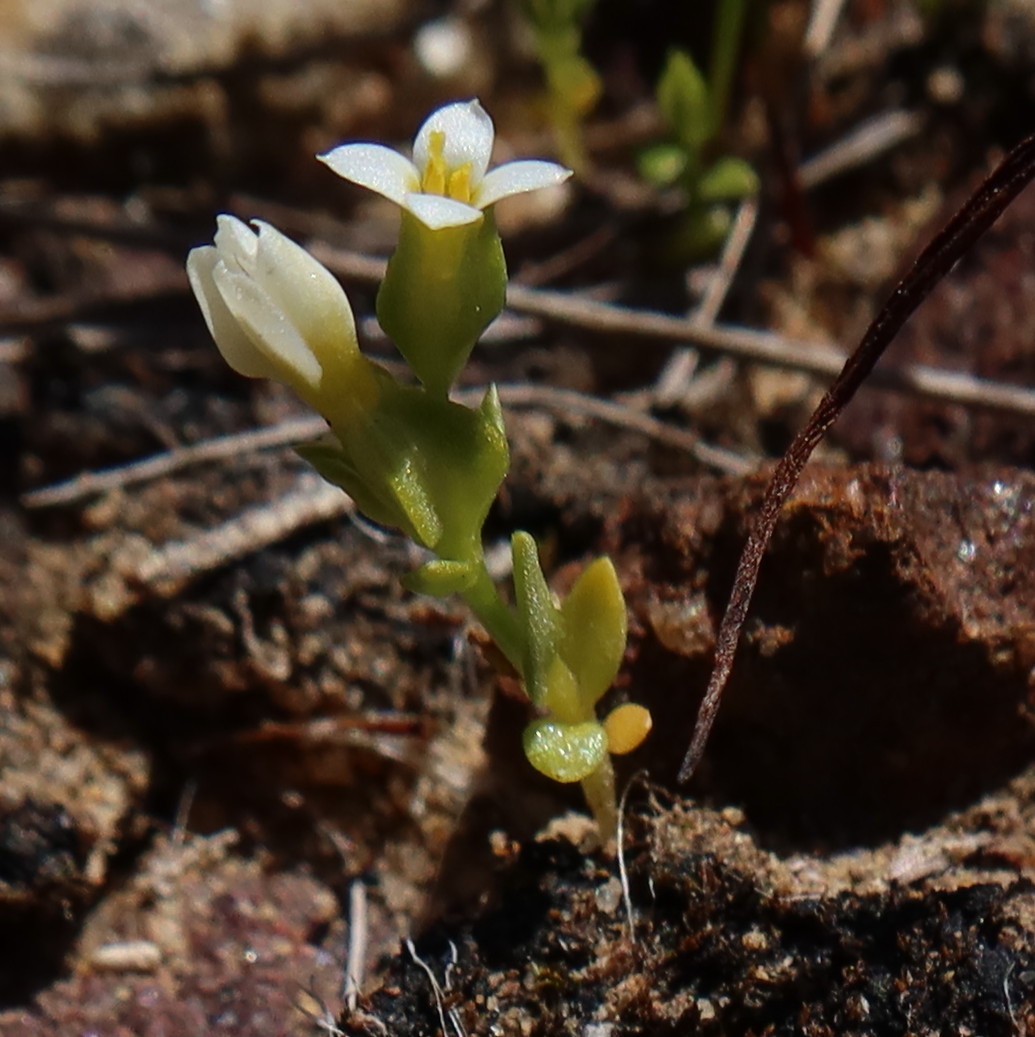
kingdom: Plantae
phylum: Tracheophyta
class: Magnoliopsida
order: Gentianales
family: Gentianaceae
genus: Sebaea
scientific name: Sebaea minutiflora
